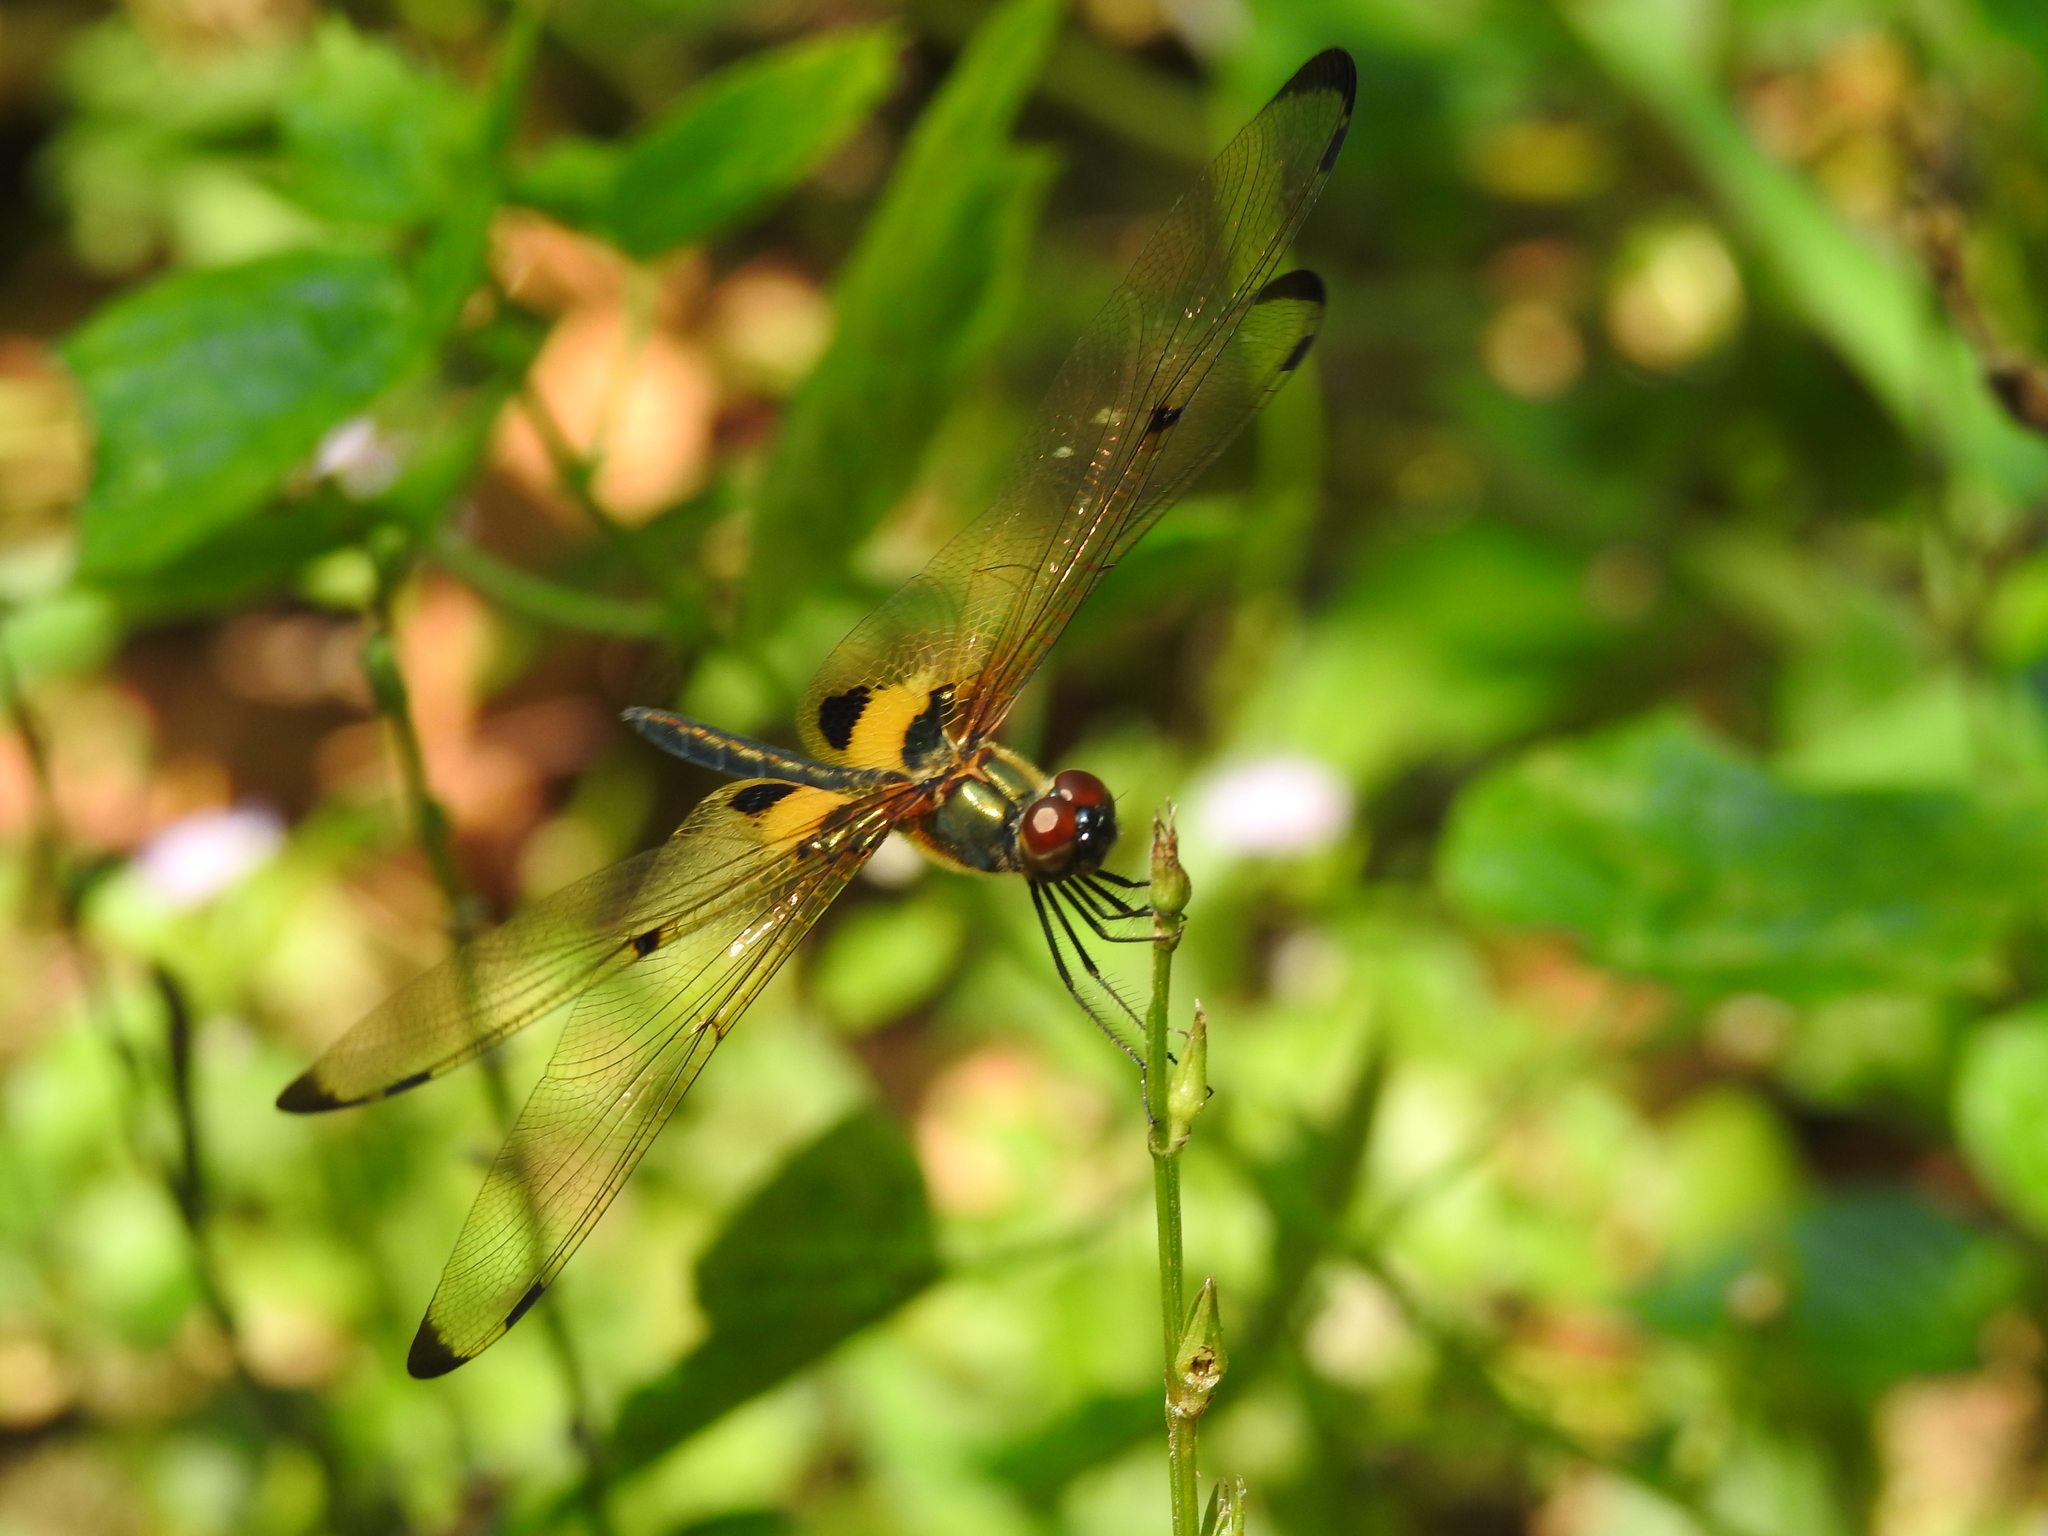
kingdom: Animalia
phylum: Arthropoda
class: Insecta
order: Odonata
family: Libellulidae
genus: Rhyothemis
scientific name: Rhyothemis phyllis
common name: Yellow-barred flutterer
